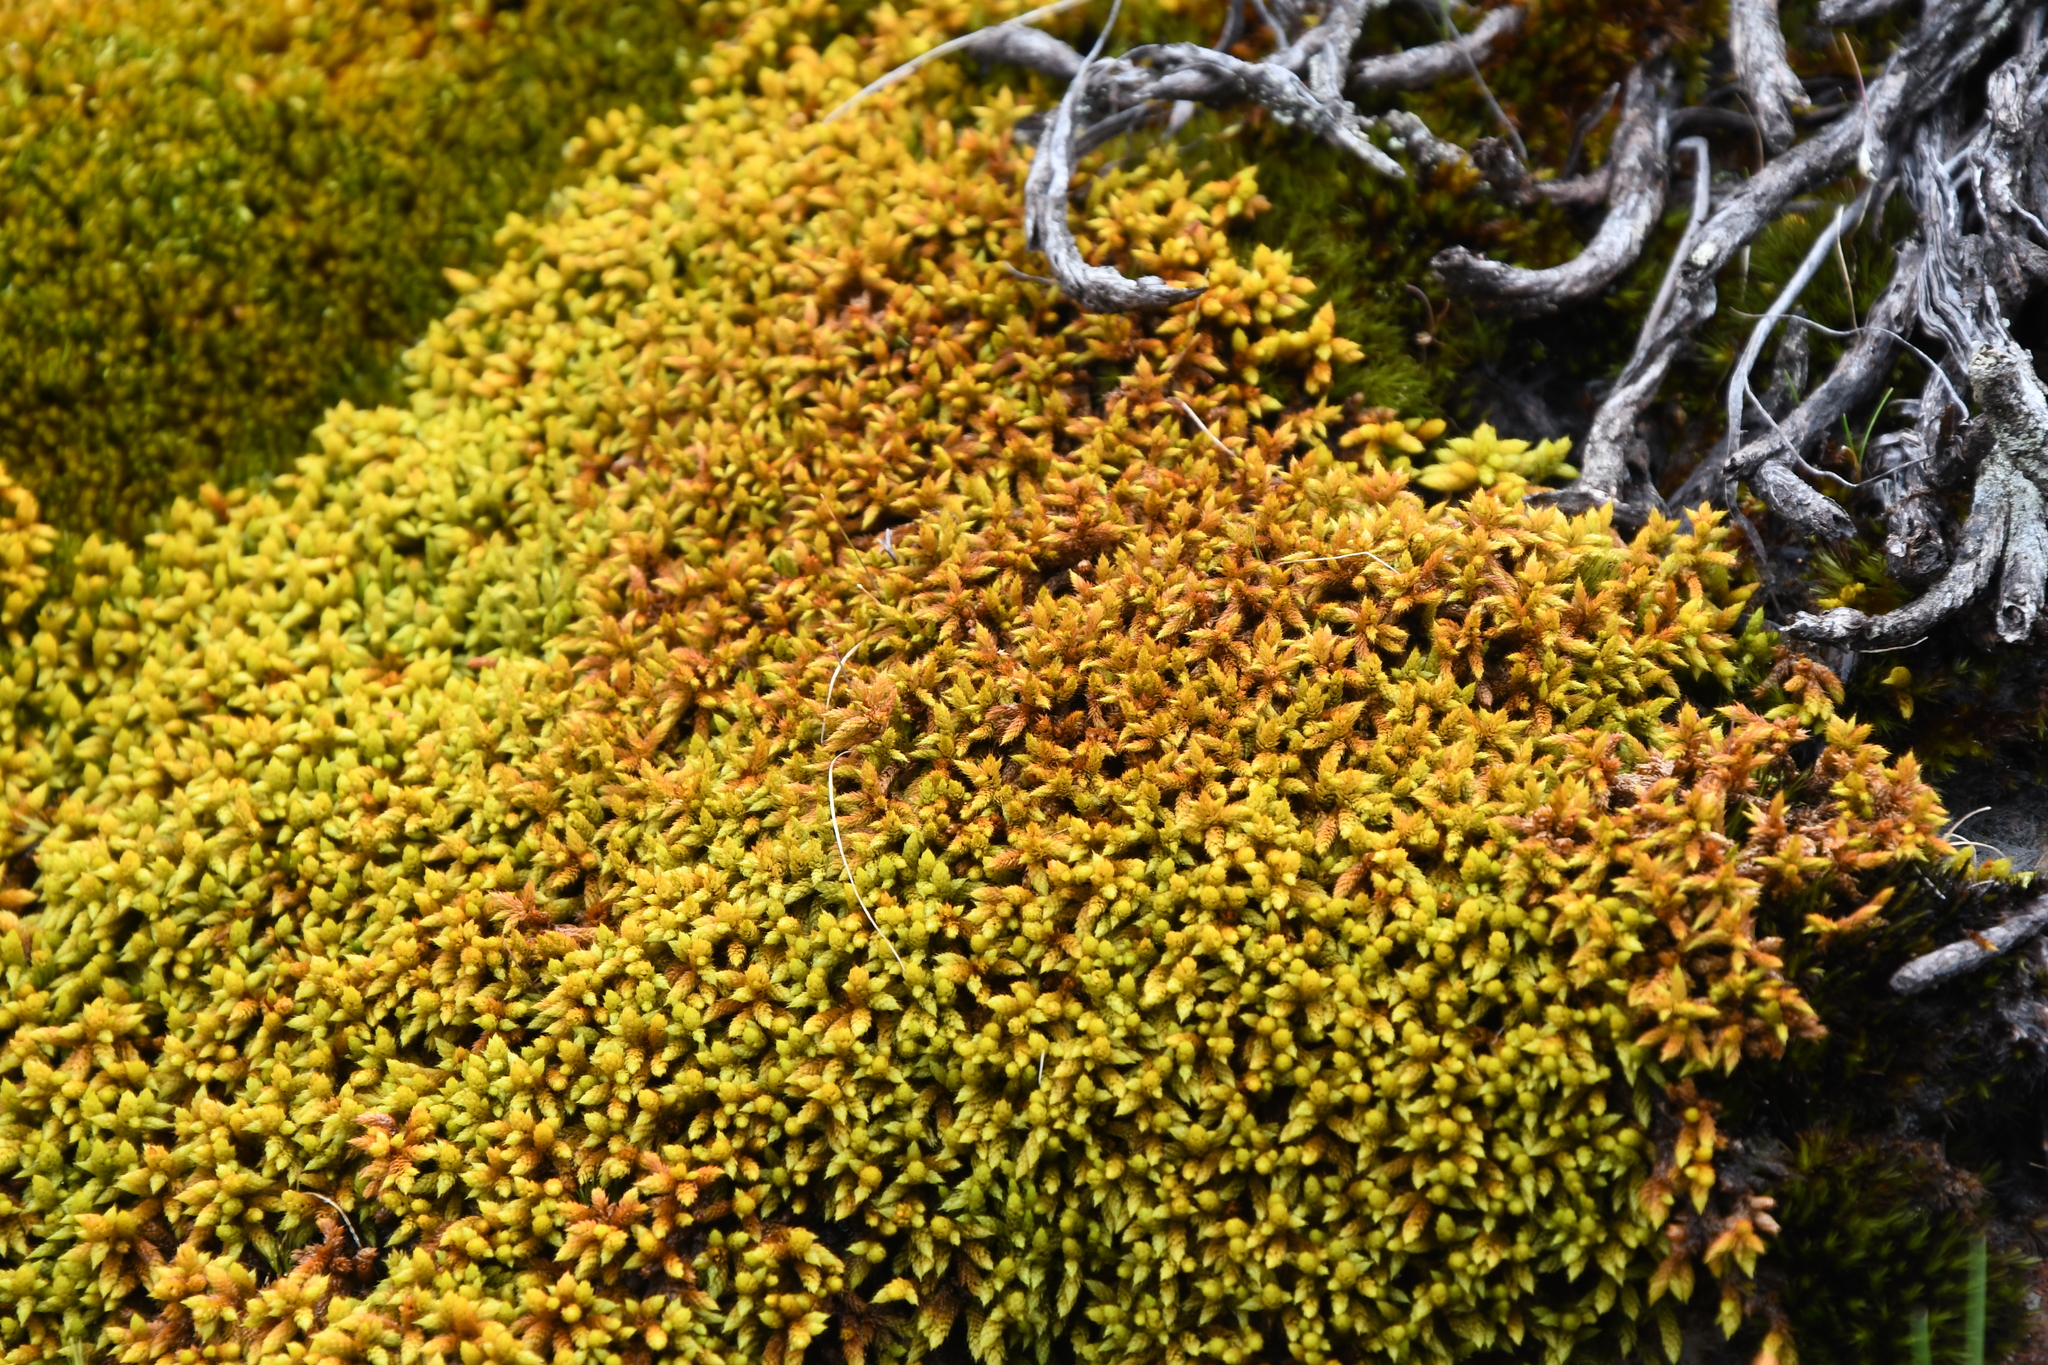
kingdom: Plantae
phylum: Bryophyta
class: Bryopsida
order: Hedwigiales
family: Hedwigiaceae
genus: Rhacocarpus
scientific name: Rhacocarpus purpurascens
